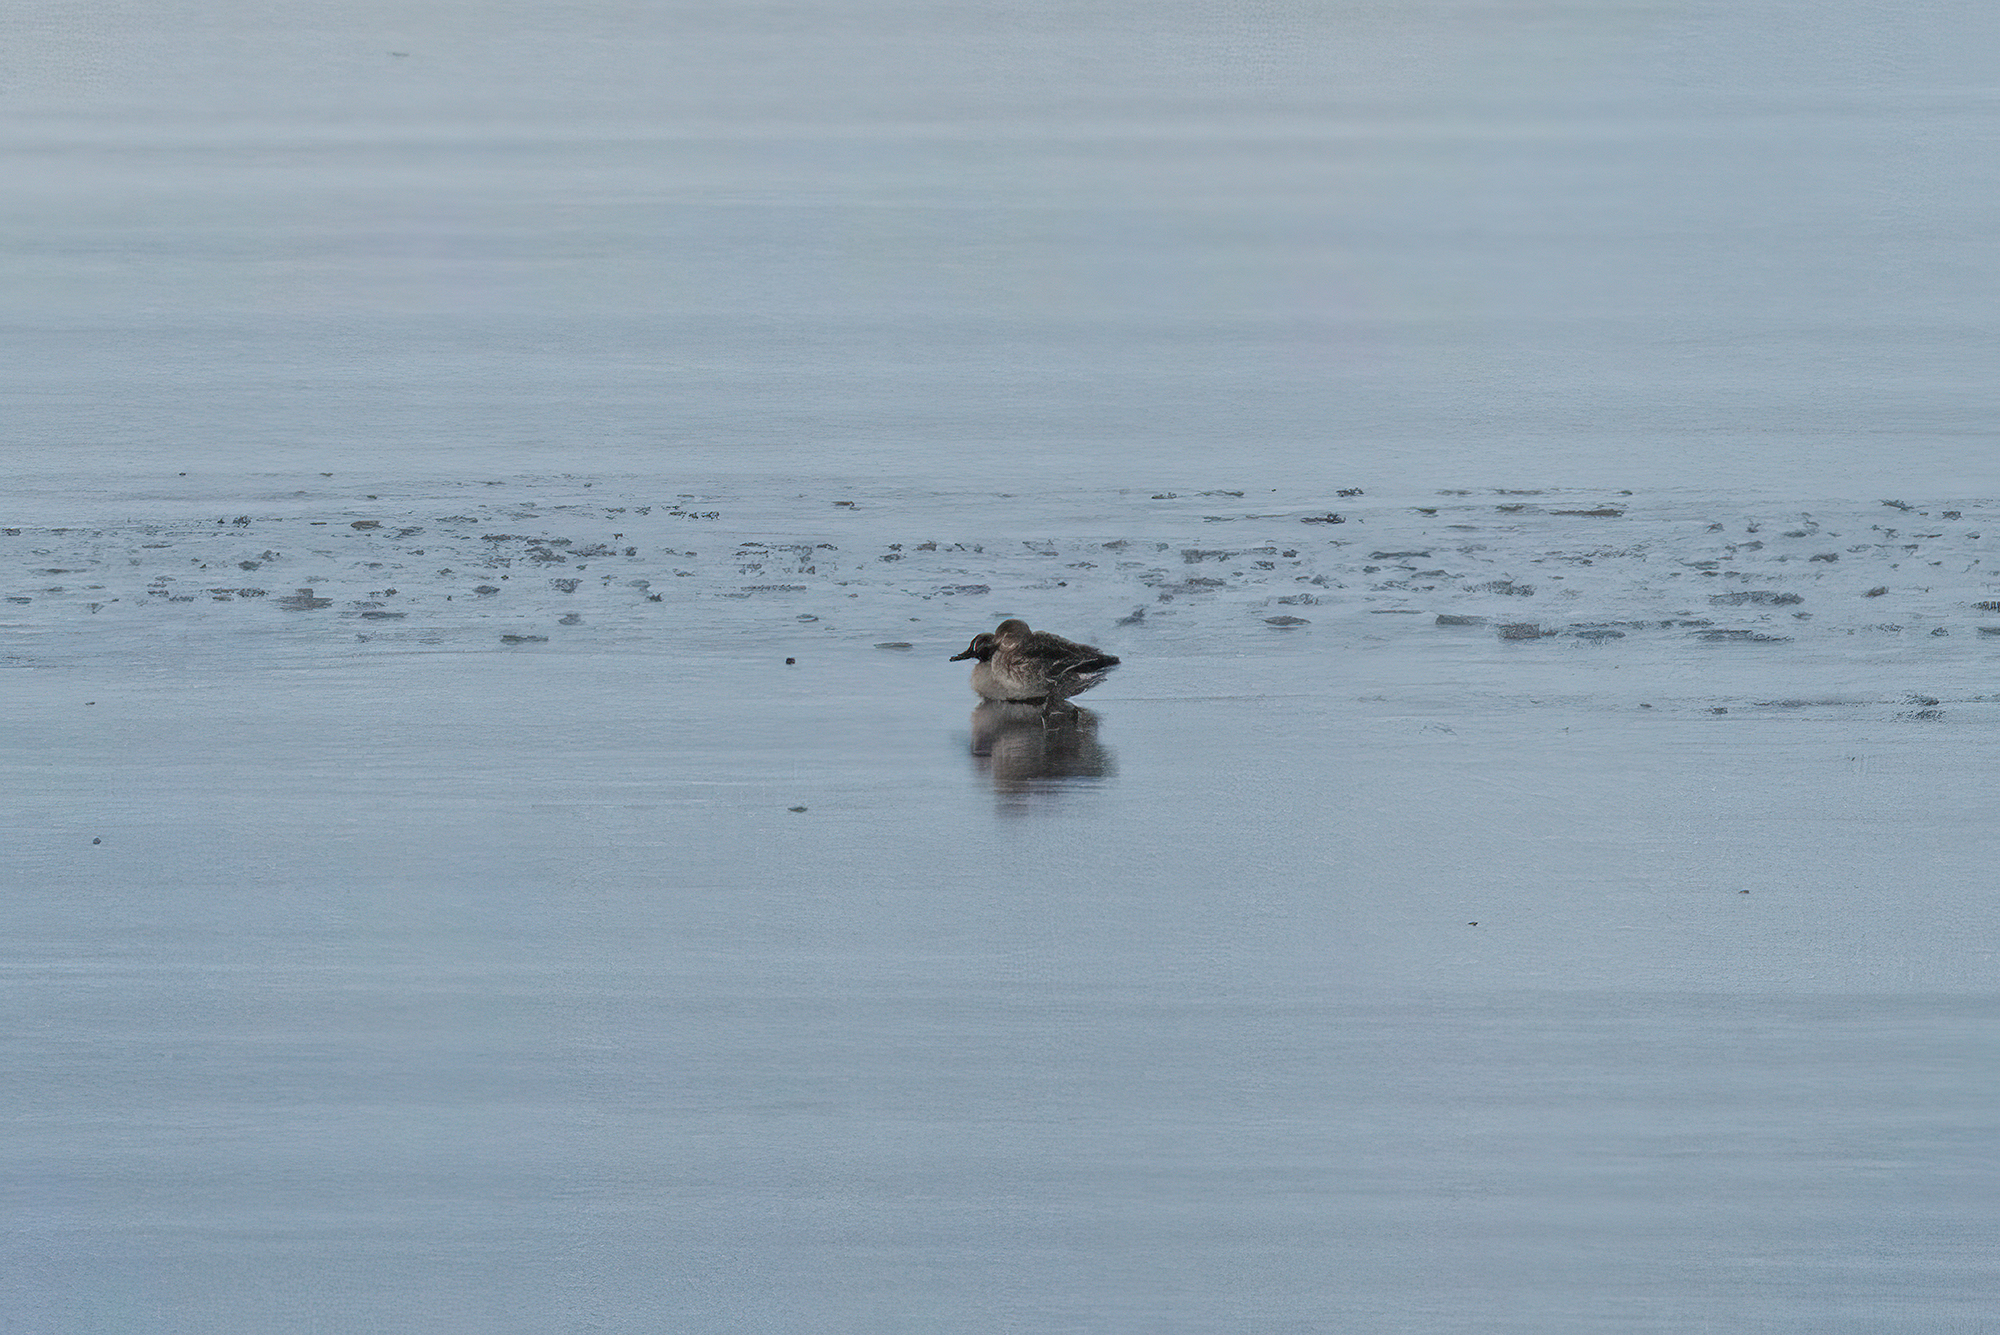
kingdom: Animalia
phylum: Chordata
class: Aves
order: Anseriformes
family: Anatidae
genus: Anas
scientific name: Anas crecca
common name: Eurasian teal
